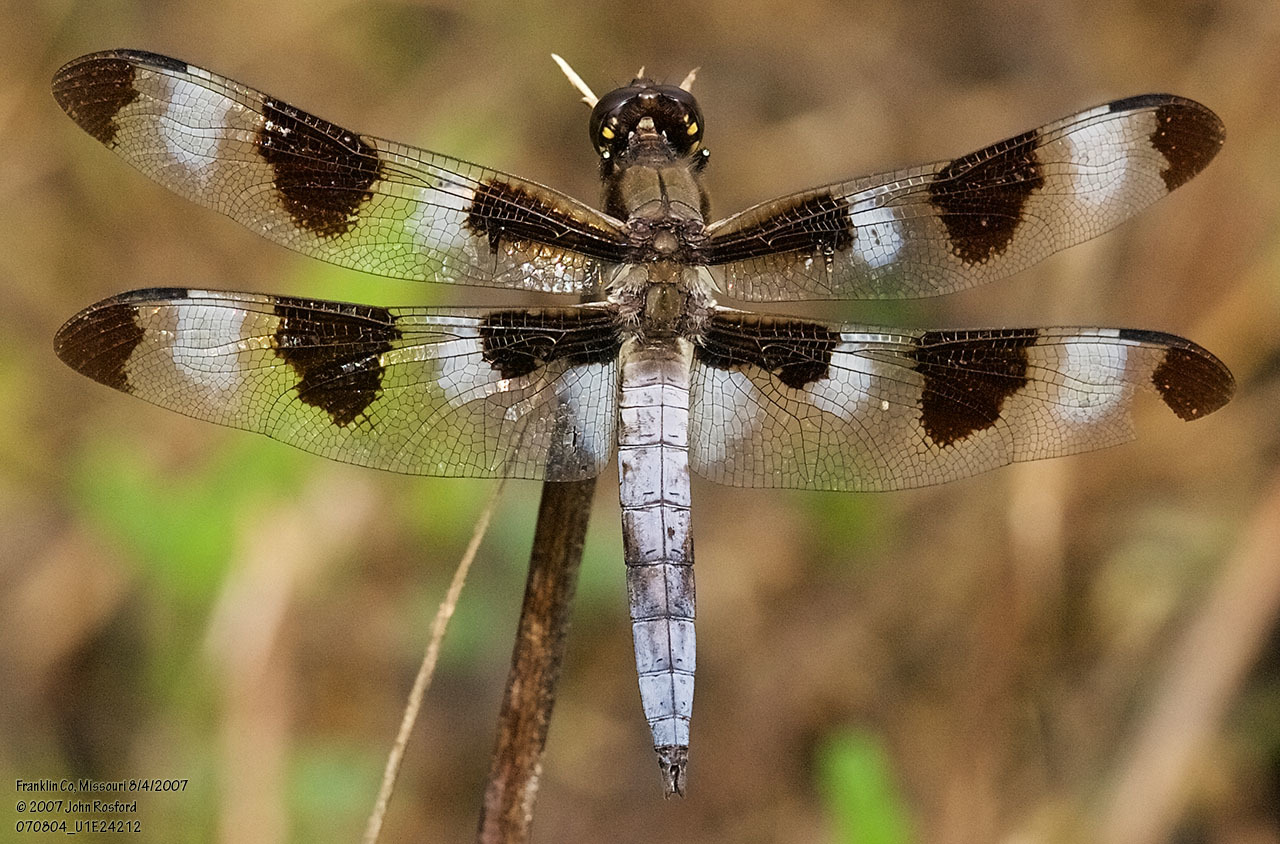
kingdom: Animalia
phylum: Arthropoda
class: Insecta
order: Odonata
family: Libellulidae
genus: Libellula
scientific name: Libellula pulchella
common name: Twelve-spotted skimmer
